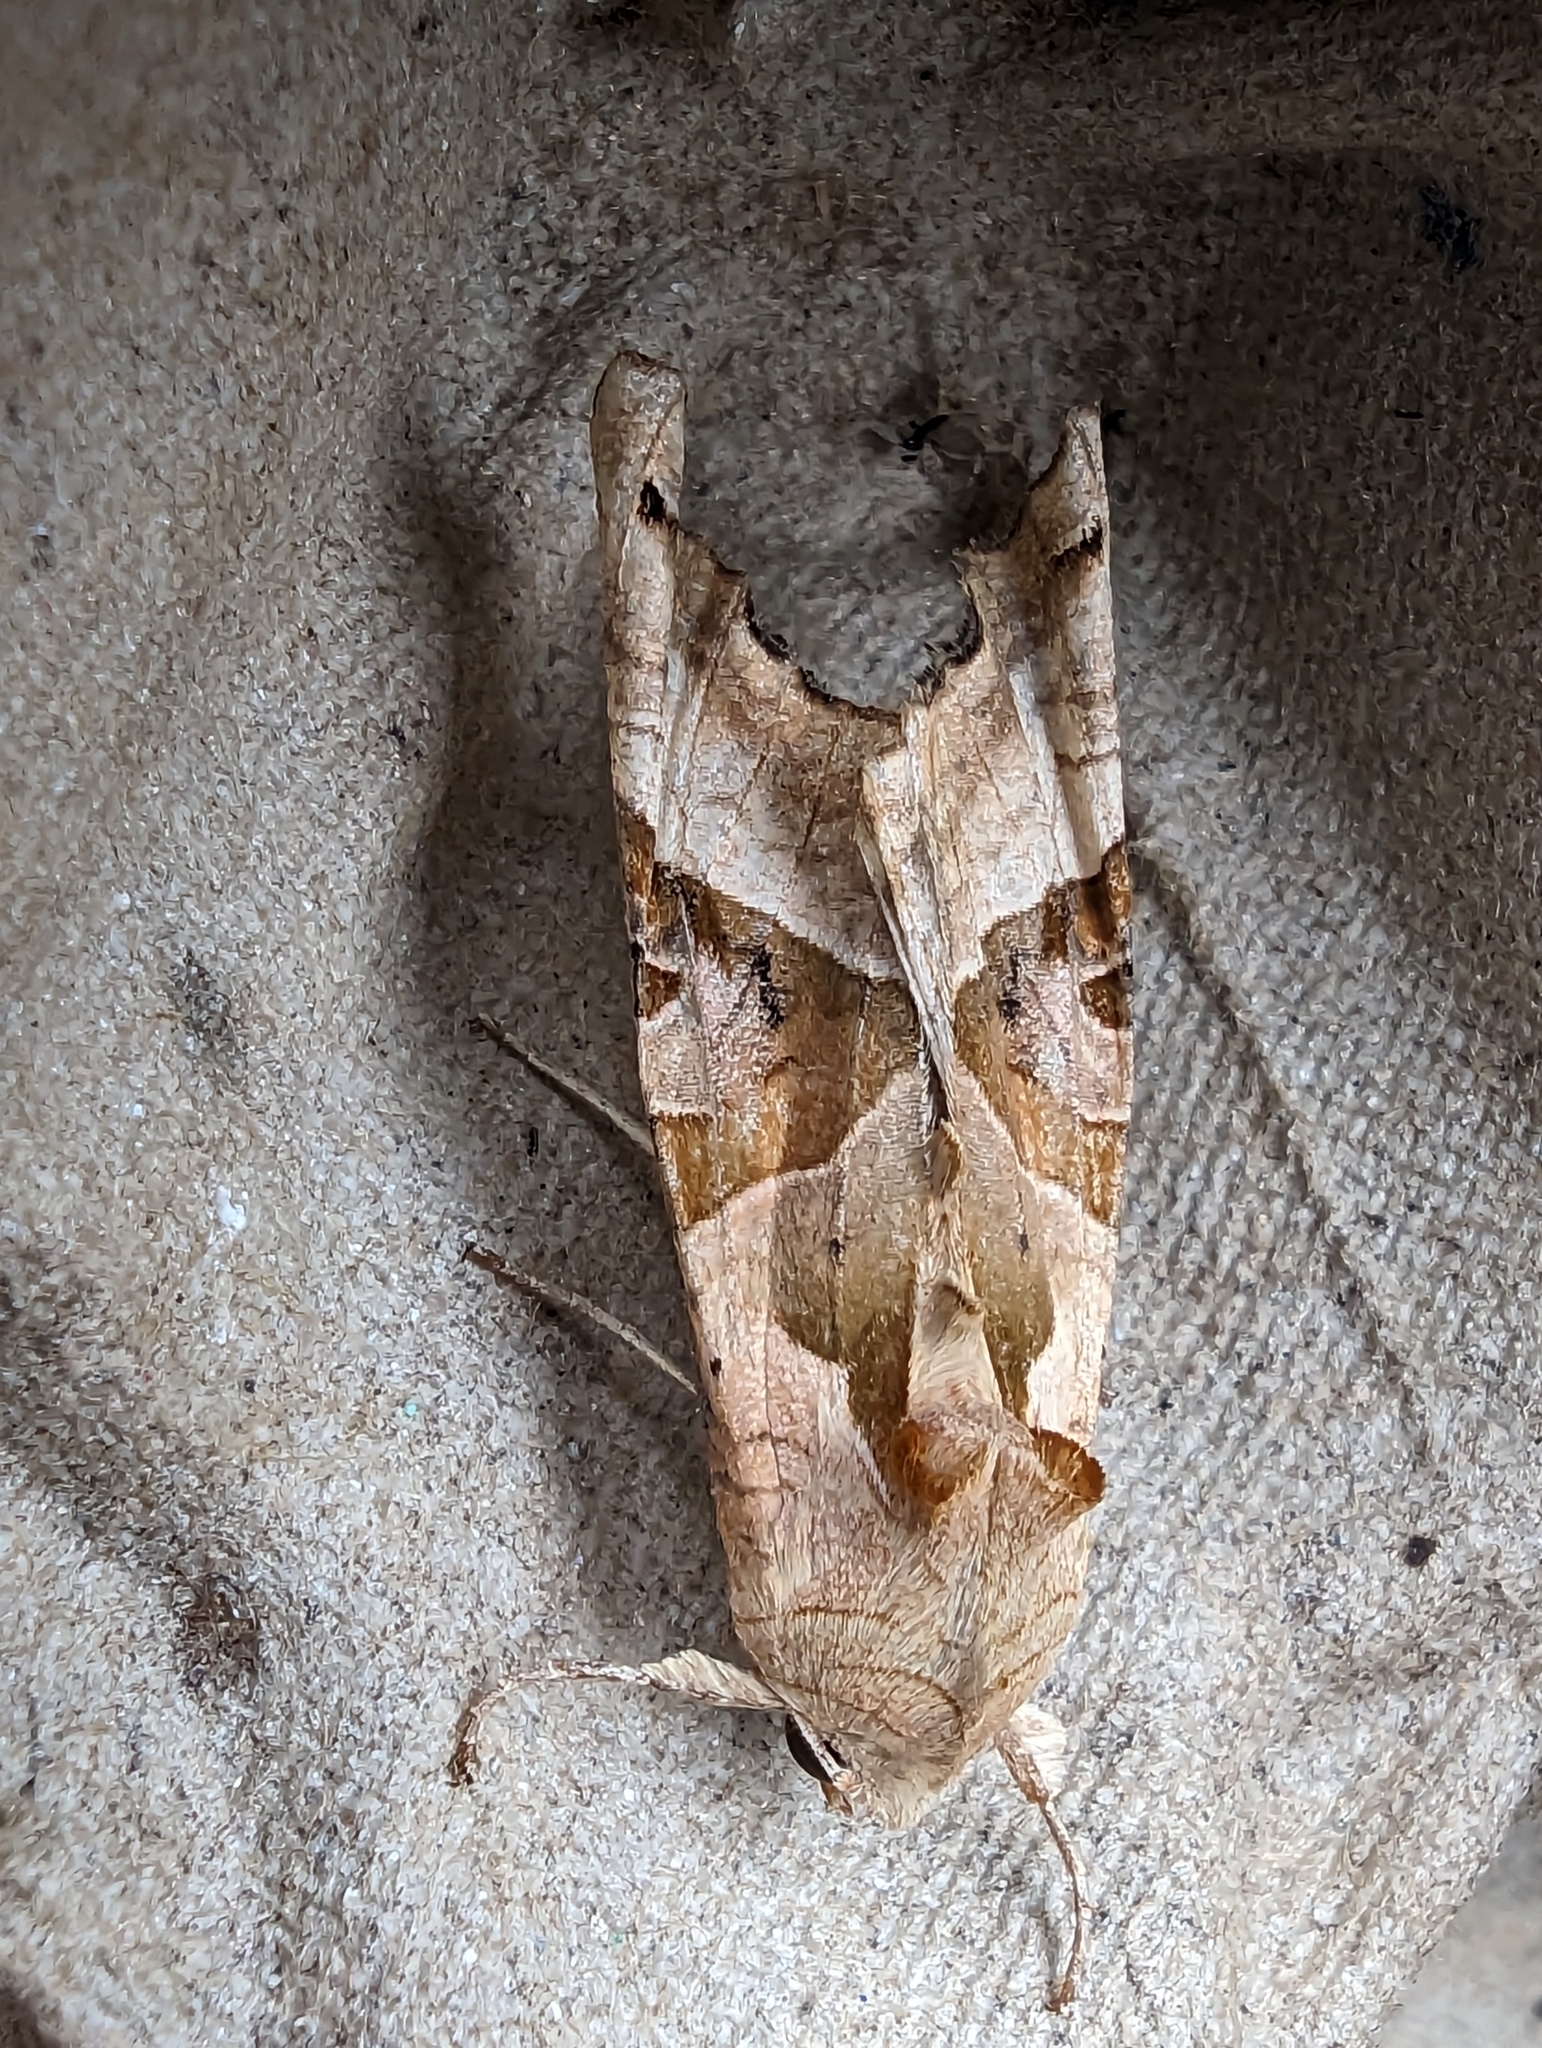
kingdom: Animalia
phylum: Arthropoda
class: Insecta
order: Lepidoptera
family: Noctuidae
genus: Phlogophora
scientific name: Phlogophora meticulosa
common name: Angle shades
